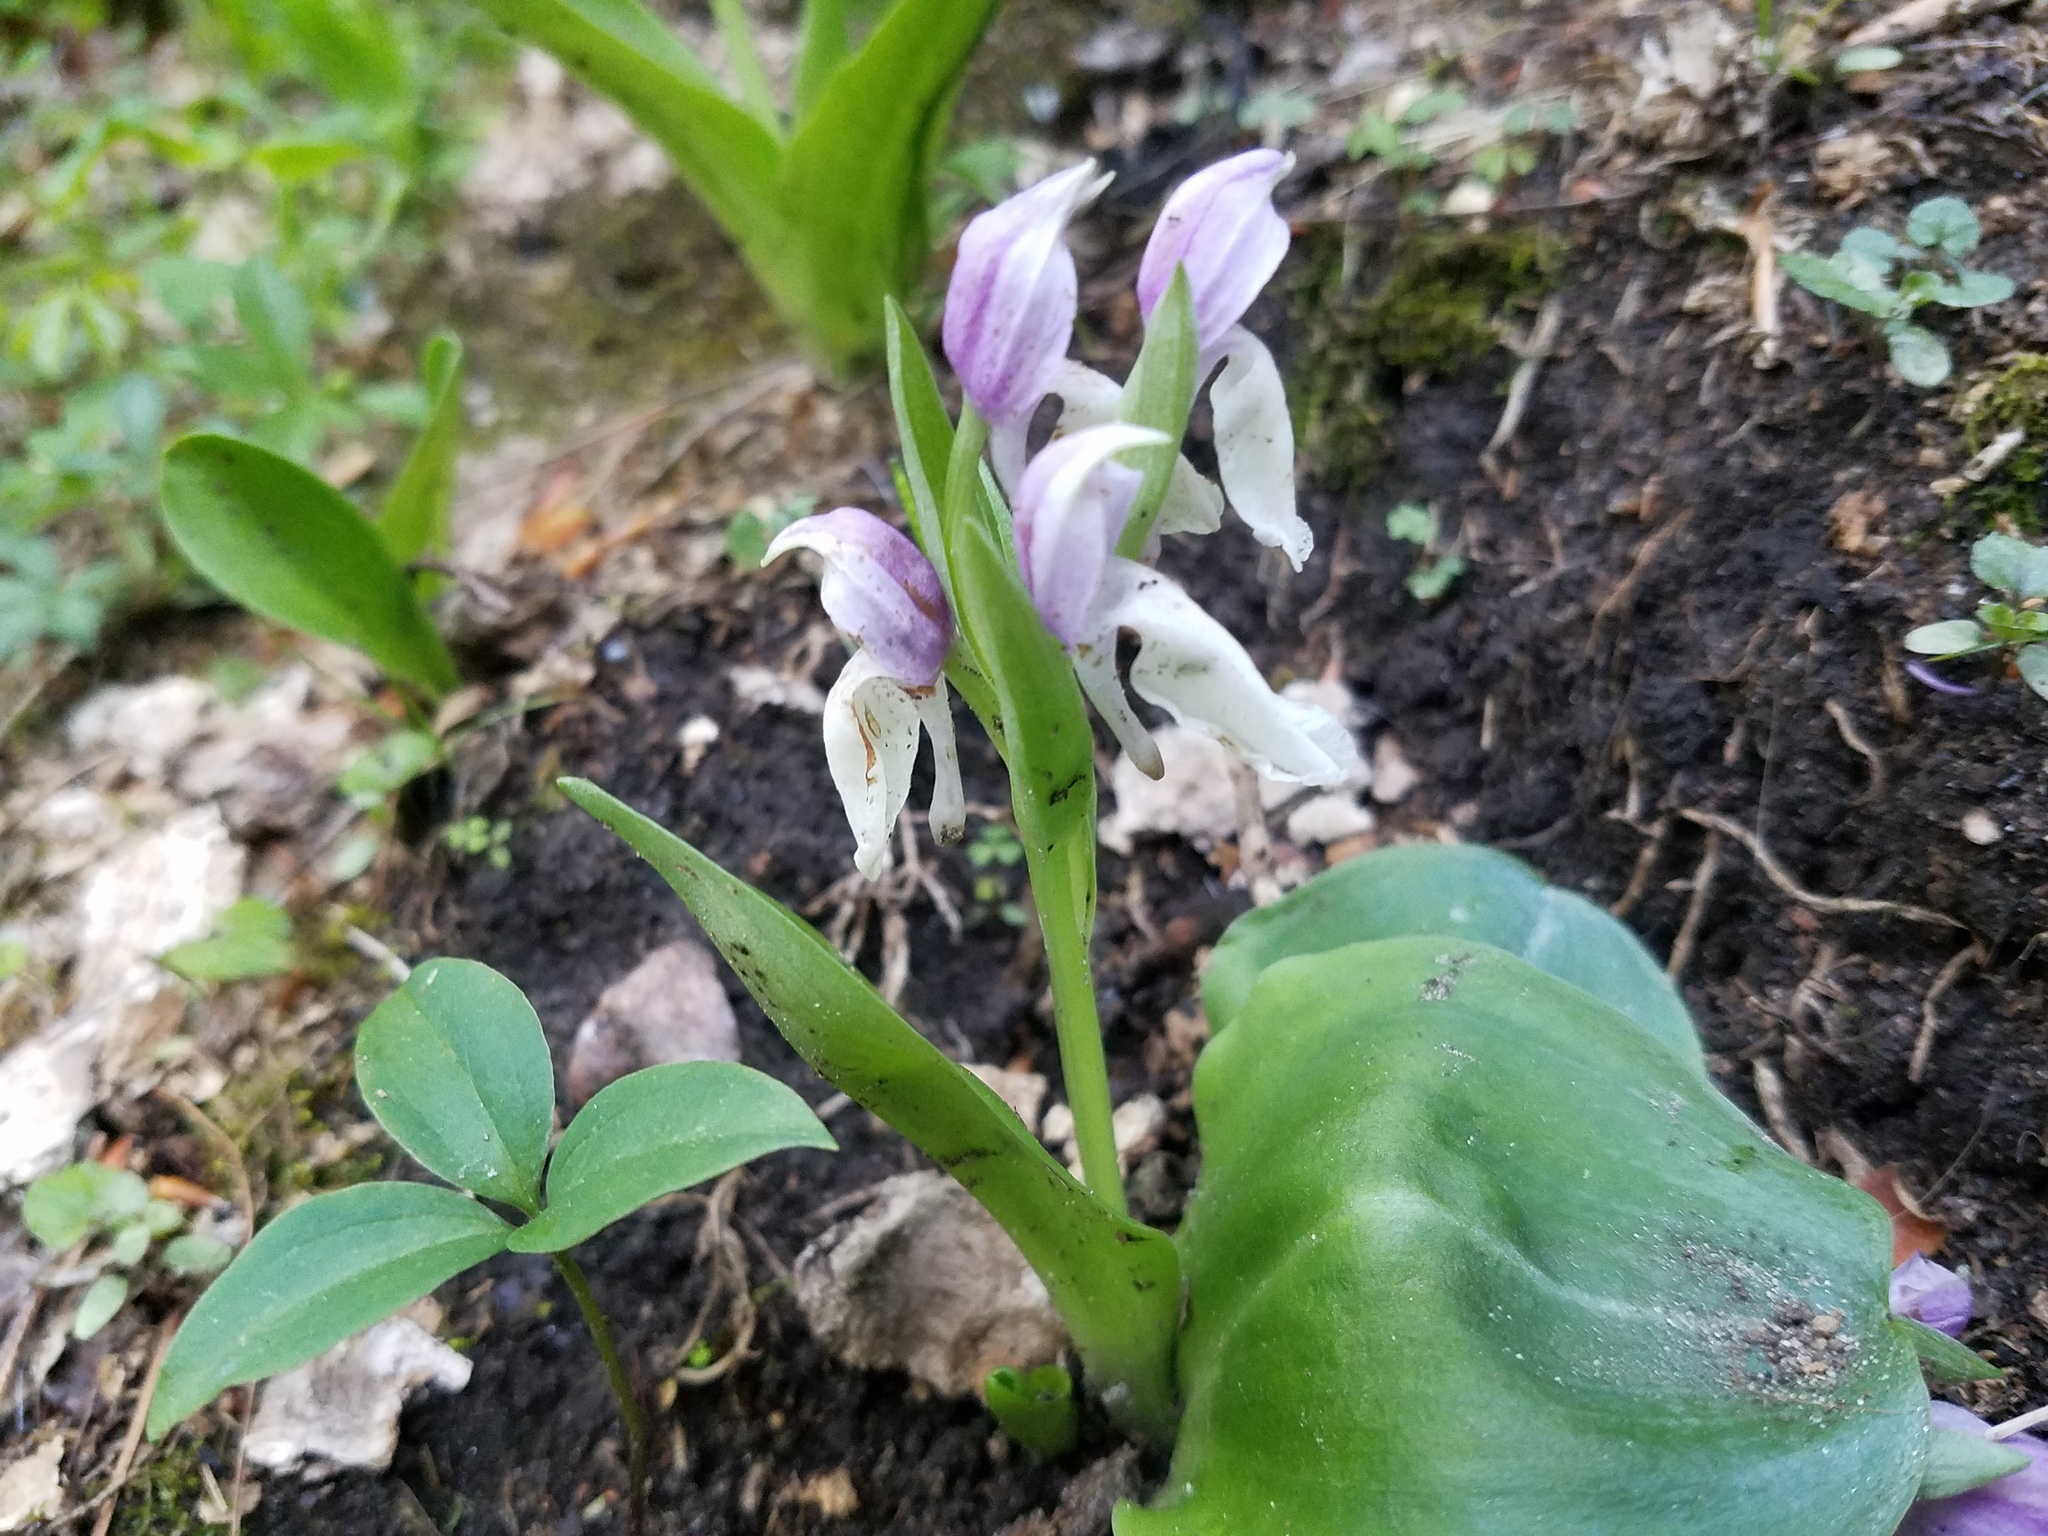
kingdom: Plantae
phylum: Tracheophyta
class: Liliopsida
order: Asparagales
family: Orchidaceae
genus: Galearis
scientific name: Galearis spectabilis
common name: Purple-hooded orchis
